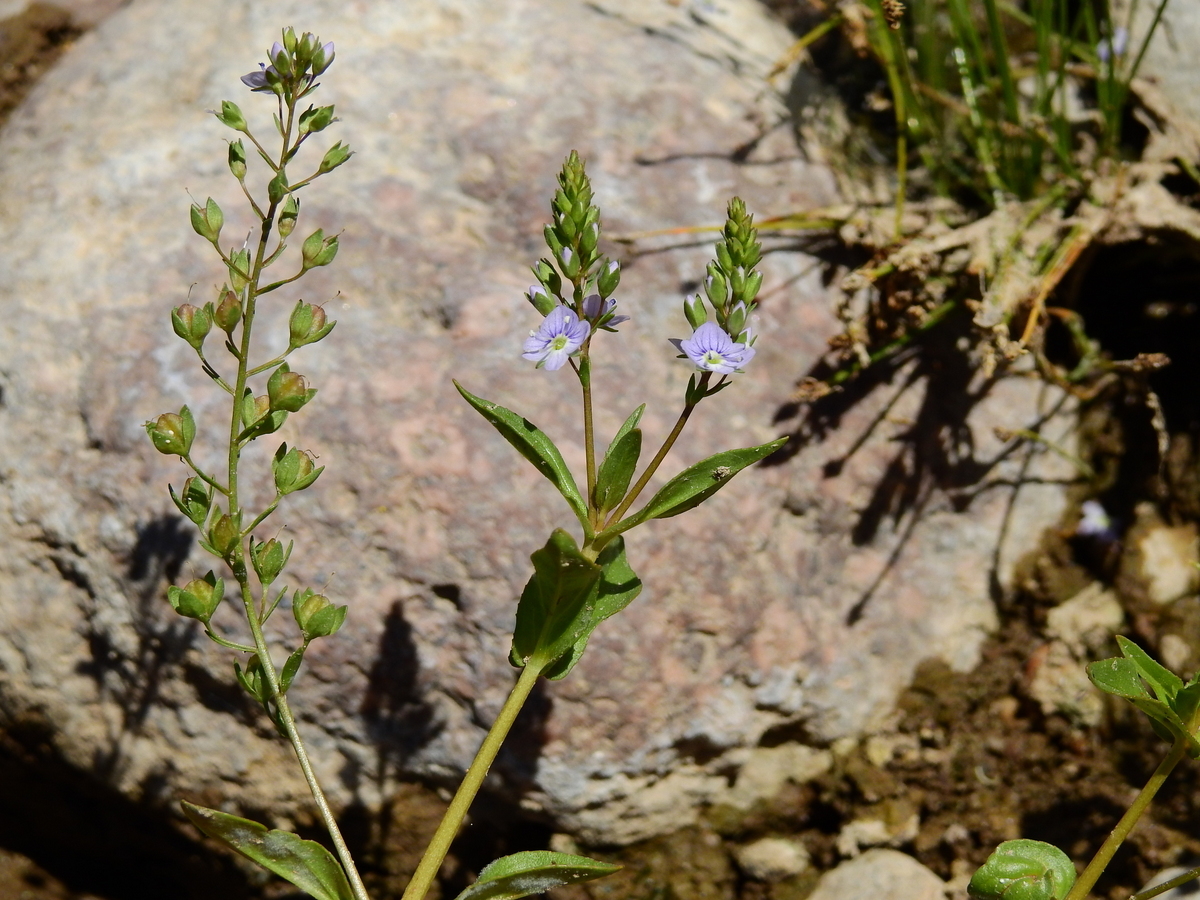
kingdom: Plantae
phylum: Tracheophyta
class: Magnoliopsida
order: Lamiales
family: Plantaginaceae
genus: Veronica
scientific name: Veronica anagallis-aquatica
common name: Water speedwell
